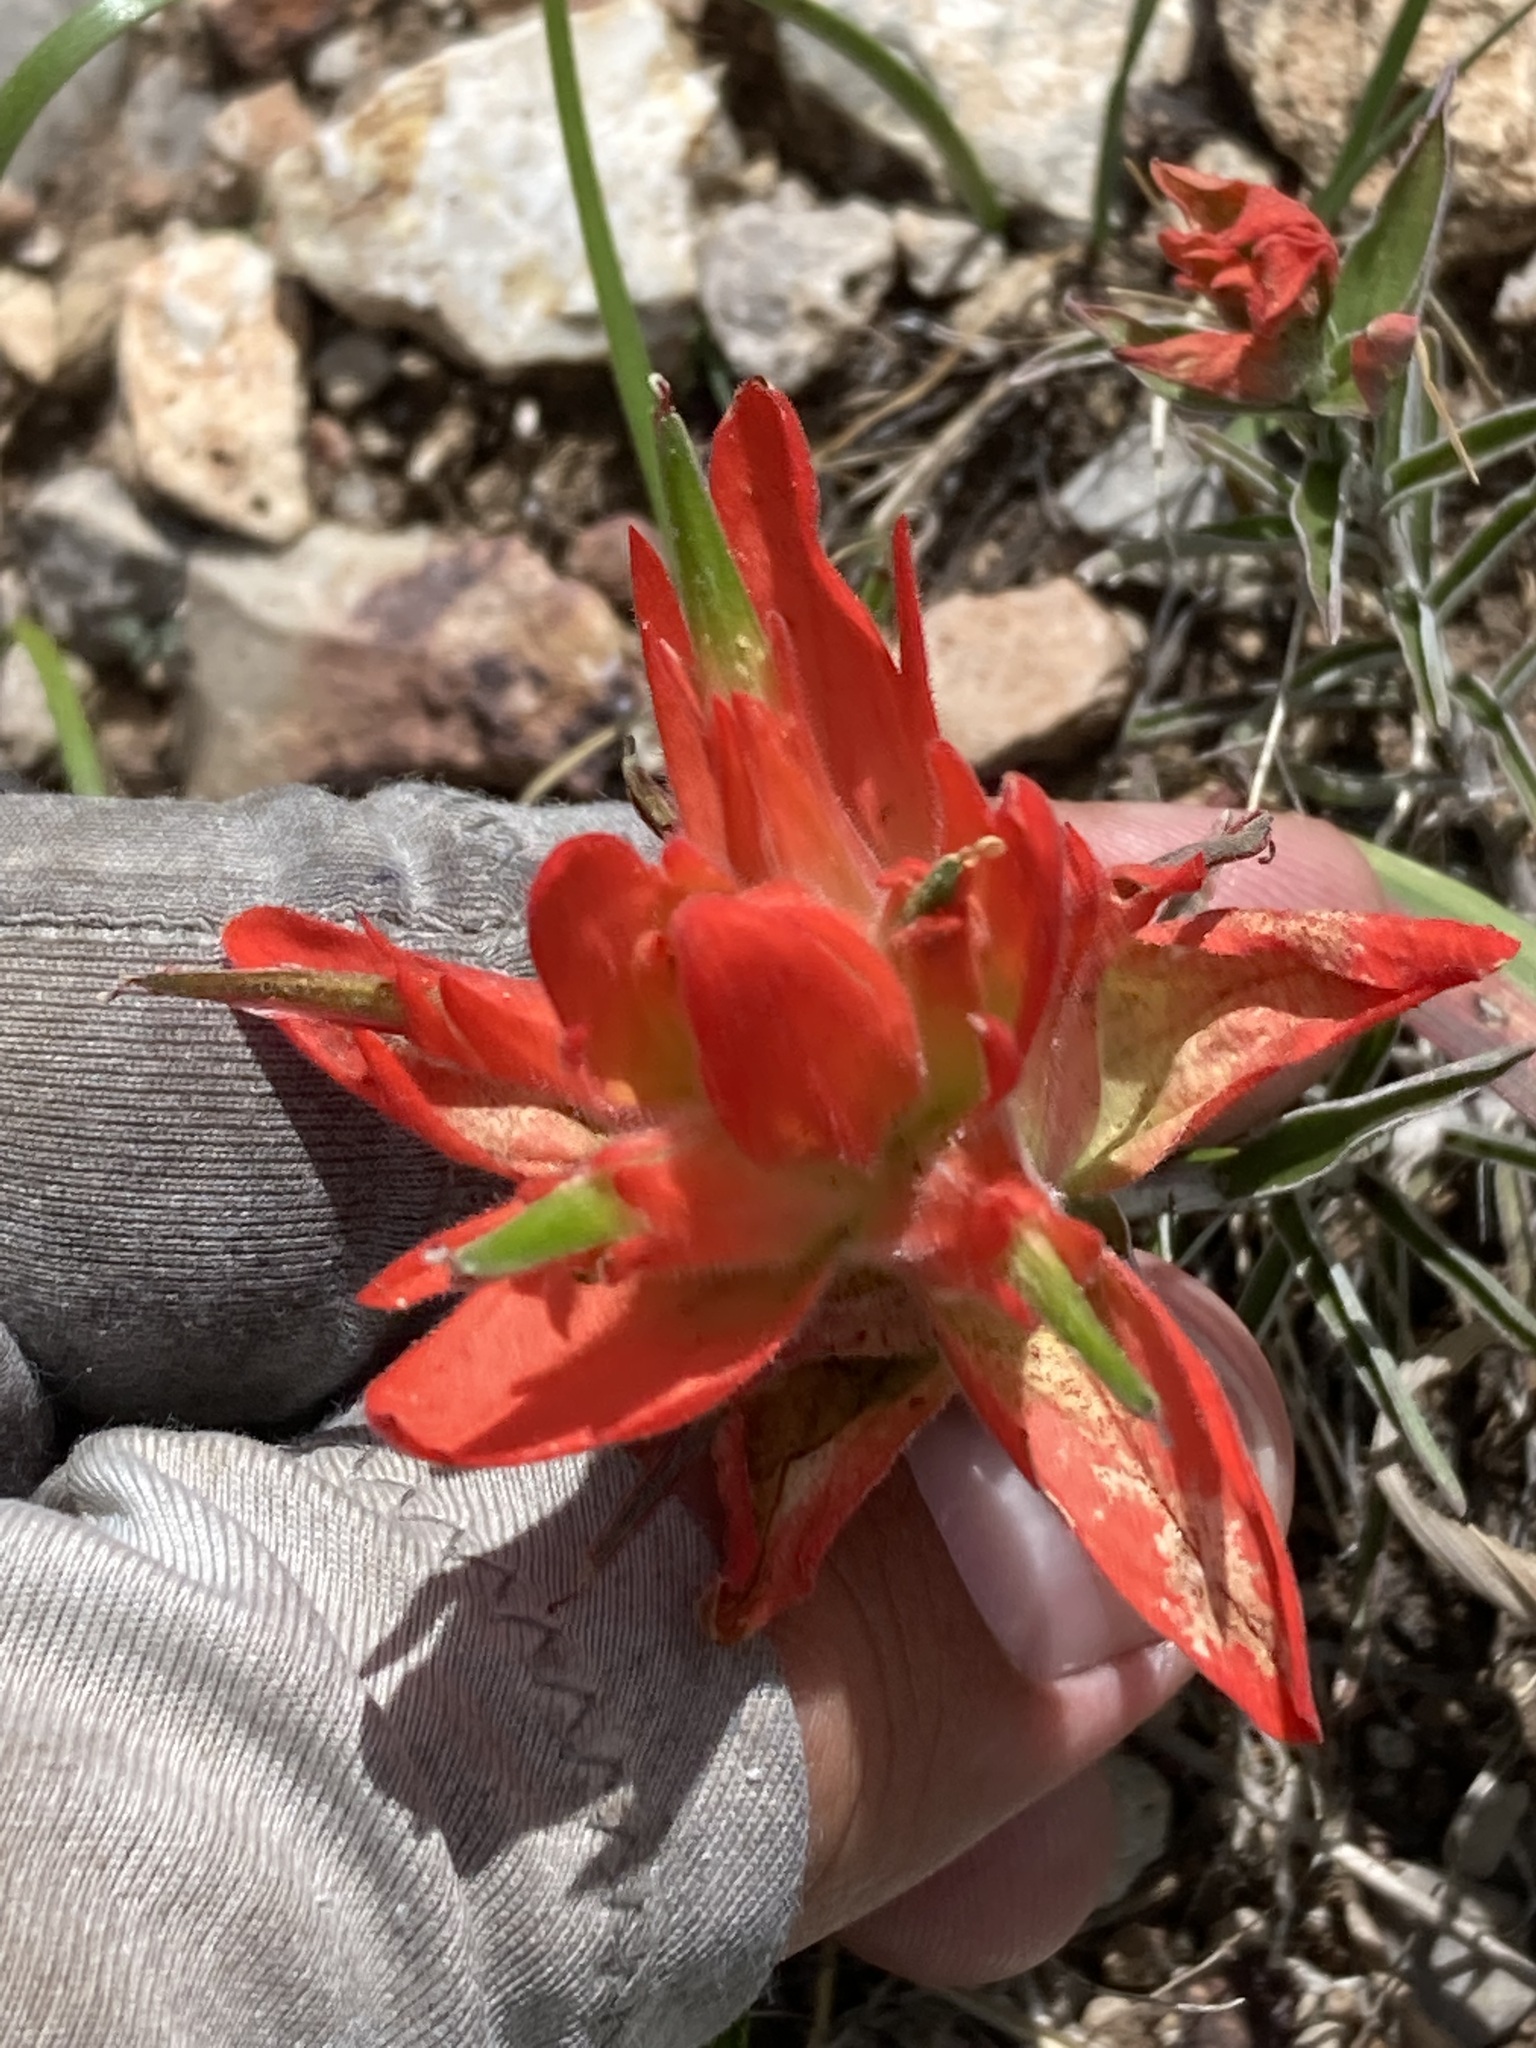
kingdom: Plantae
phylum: Tracheophyta
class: Magnoliopsida
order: Lamiales
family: Orobanchaceae
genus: Castilleja
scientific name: Castilleja integra
